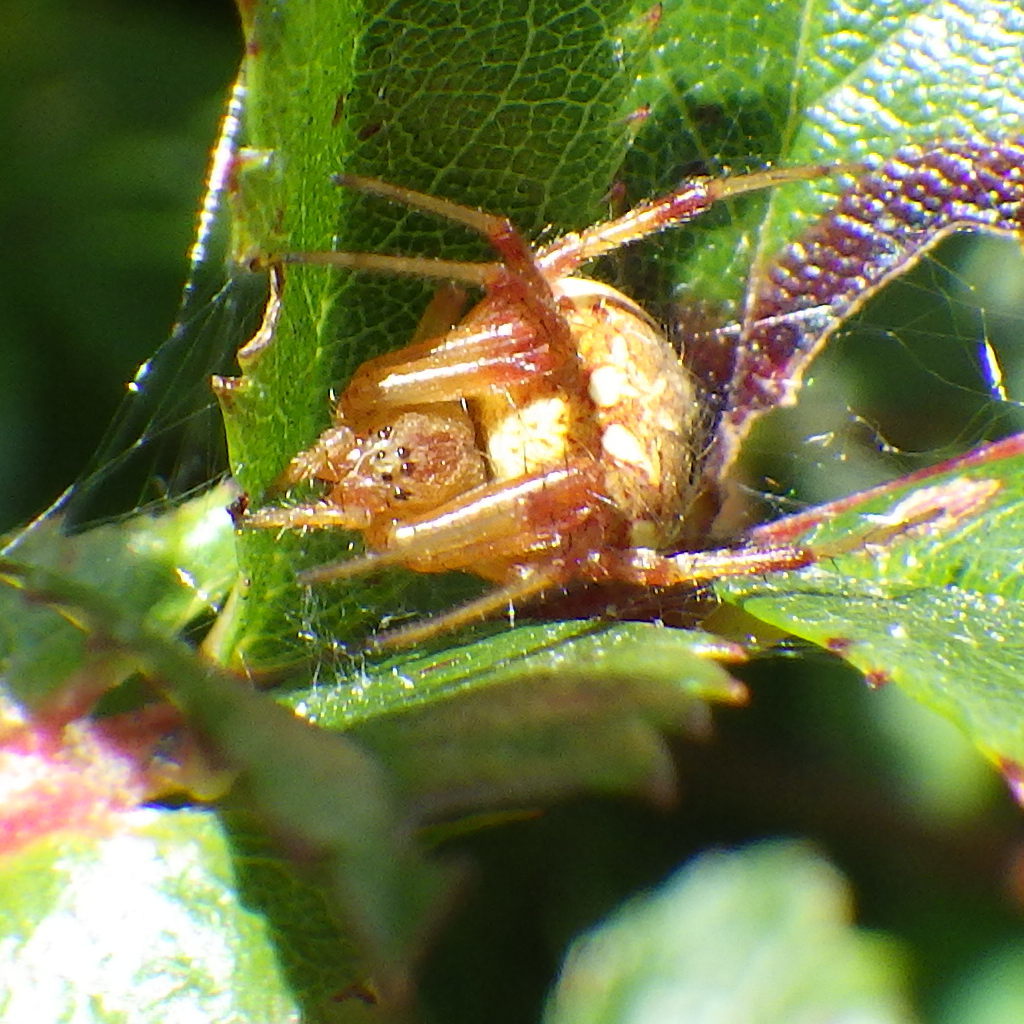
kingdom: Animalia
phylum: Arthropoda
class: Arachnida
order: Araneae
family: Araneidae
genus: Neoscona
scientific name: Neoscona arabesca
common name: Orb weavers
